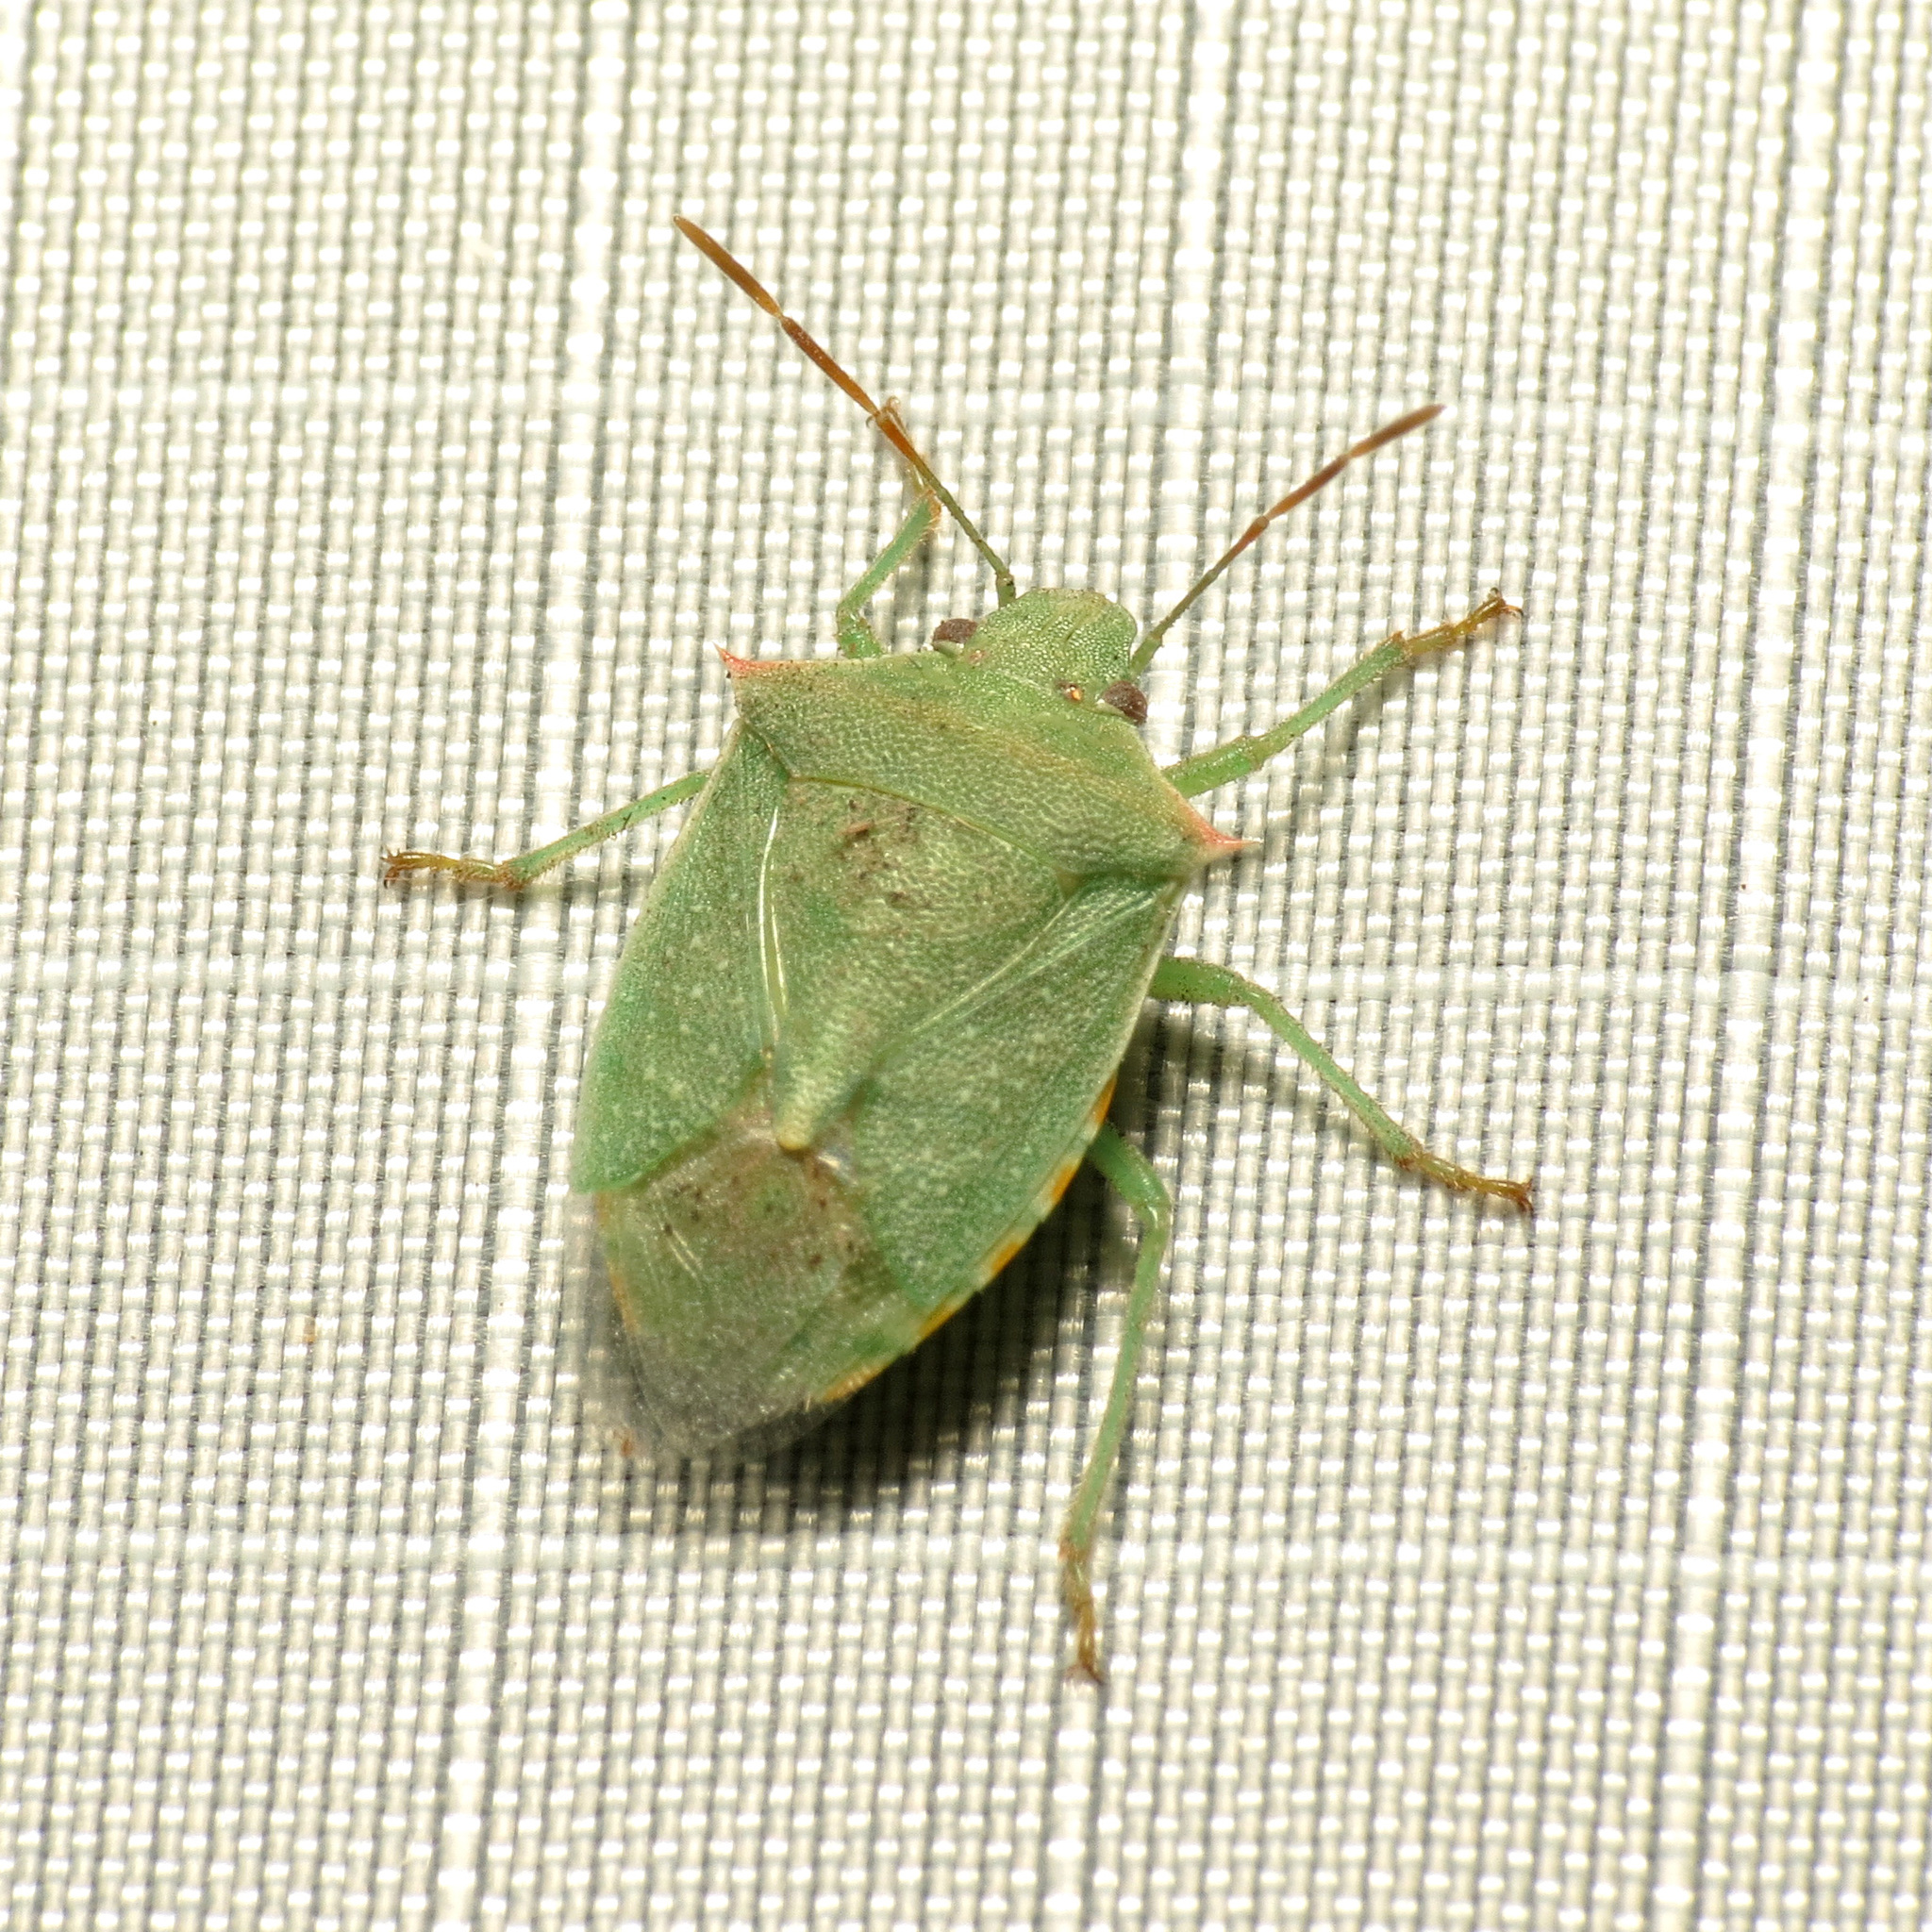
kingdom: Animalia
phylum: Arthropoda
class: Insecta
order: Hemiptera
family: Pentatomidae
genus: Thyanta
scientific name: Thyanta custator
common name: Stink bug
